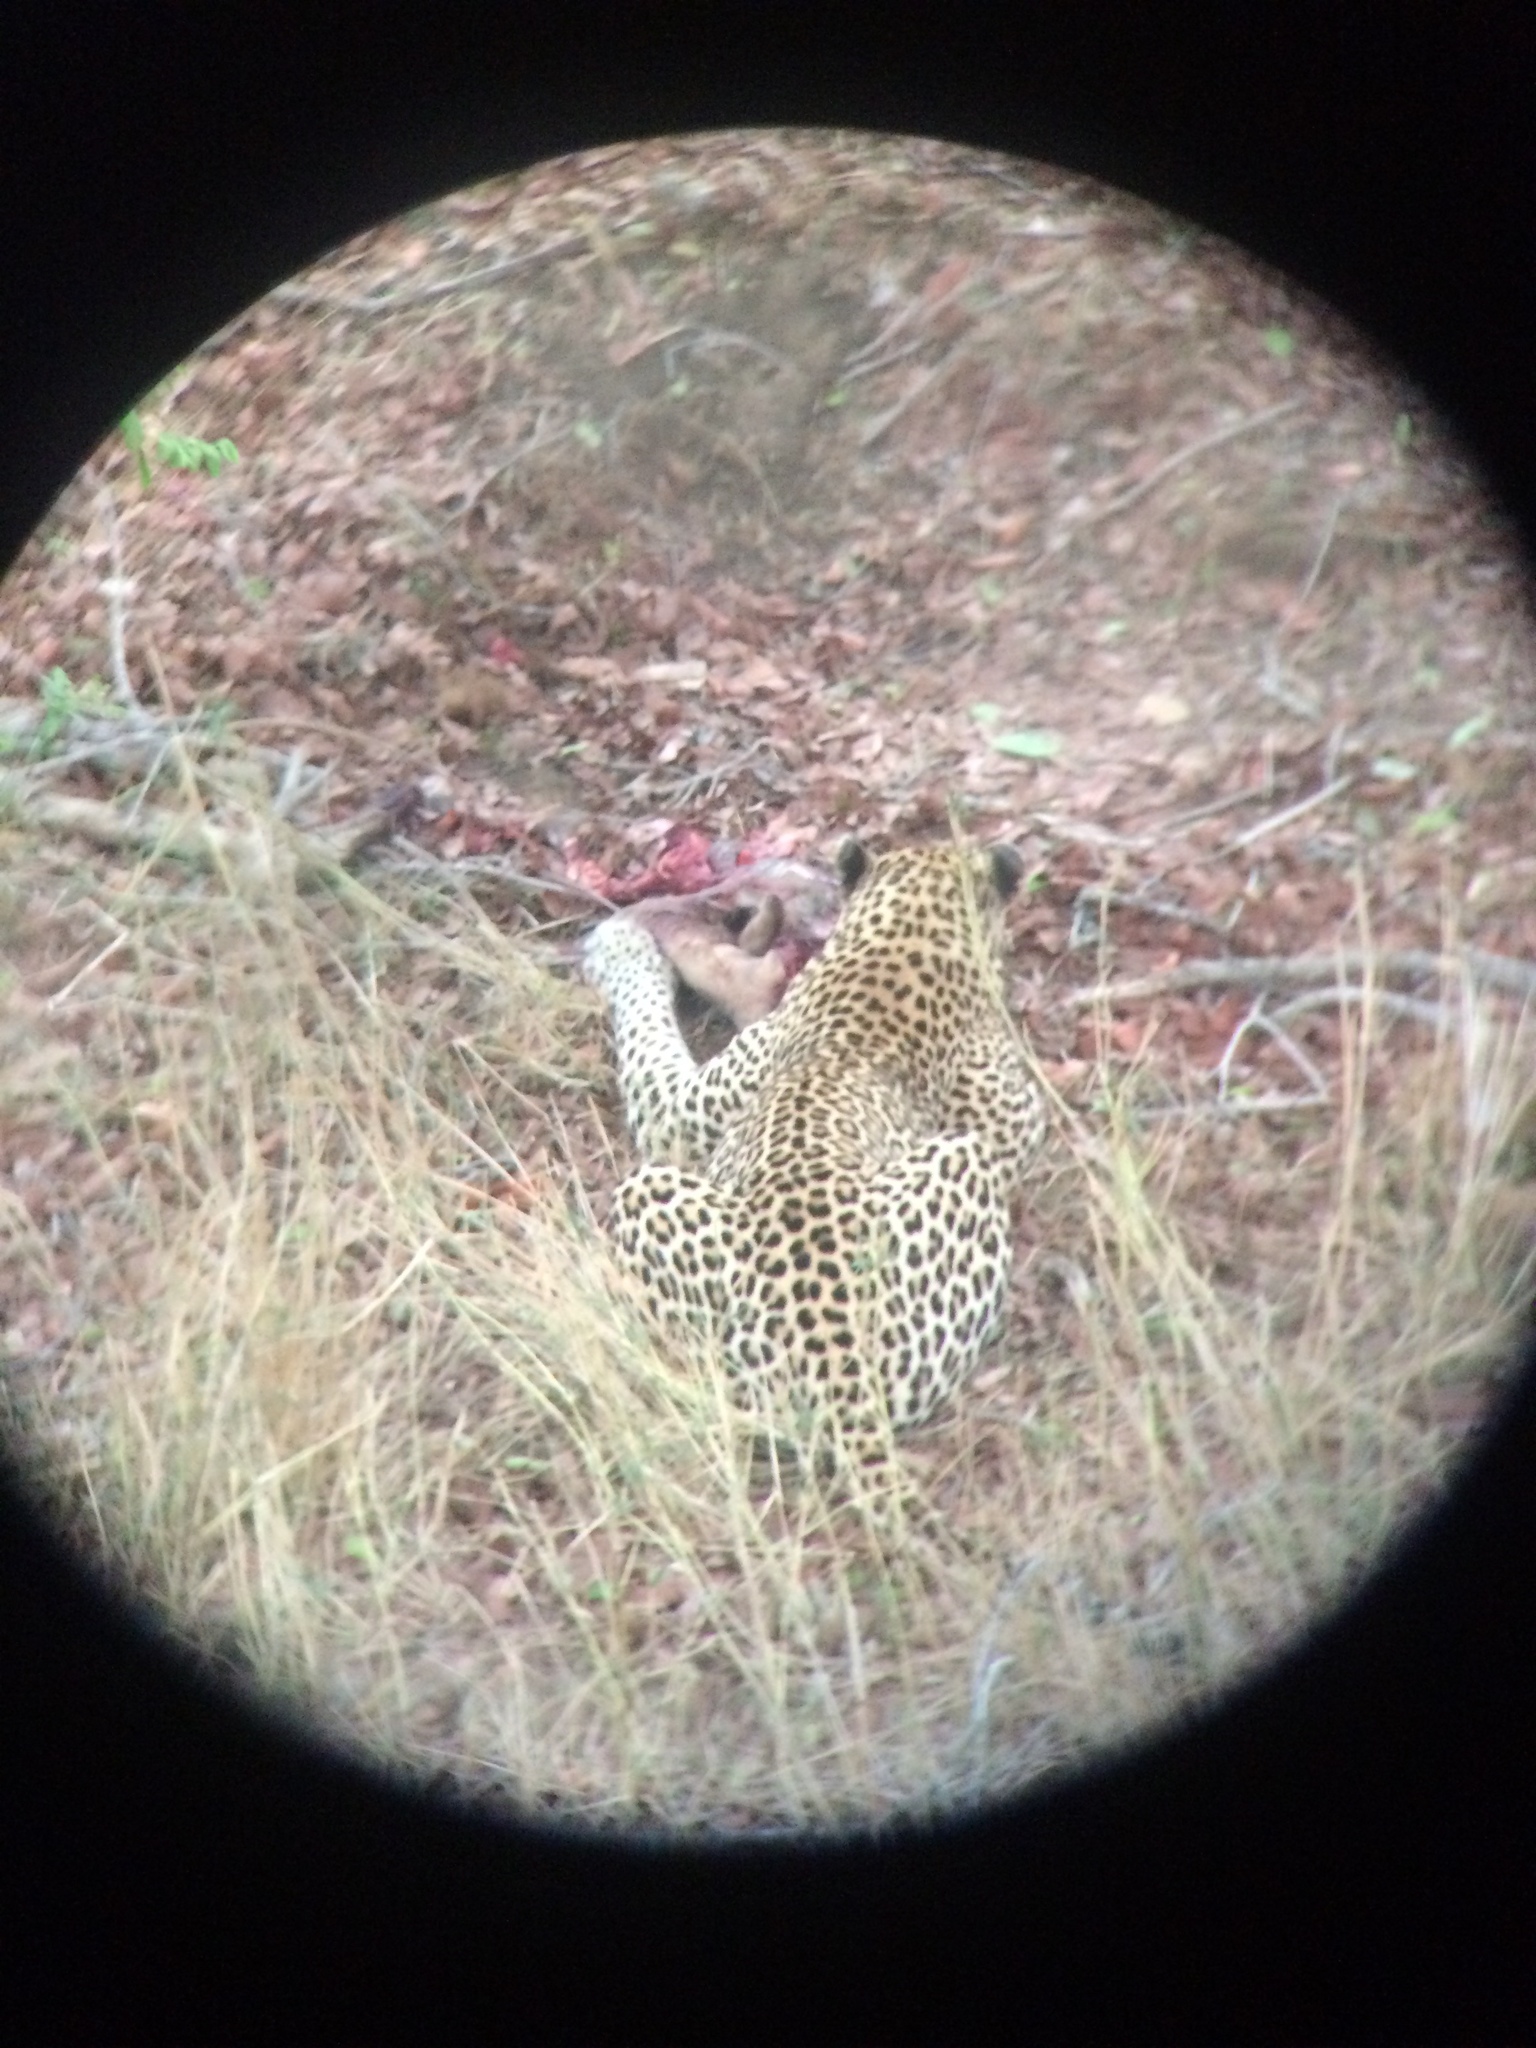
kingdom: Animalia
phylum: Chordata
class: Mammalia
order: Carnivora
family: Felidae
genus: Panthera
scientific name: Panthera pardus
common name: Leopard
